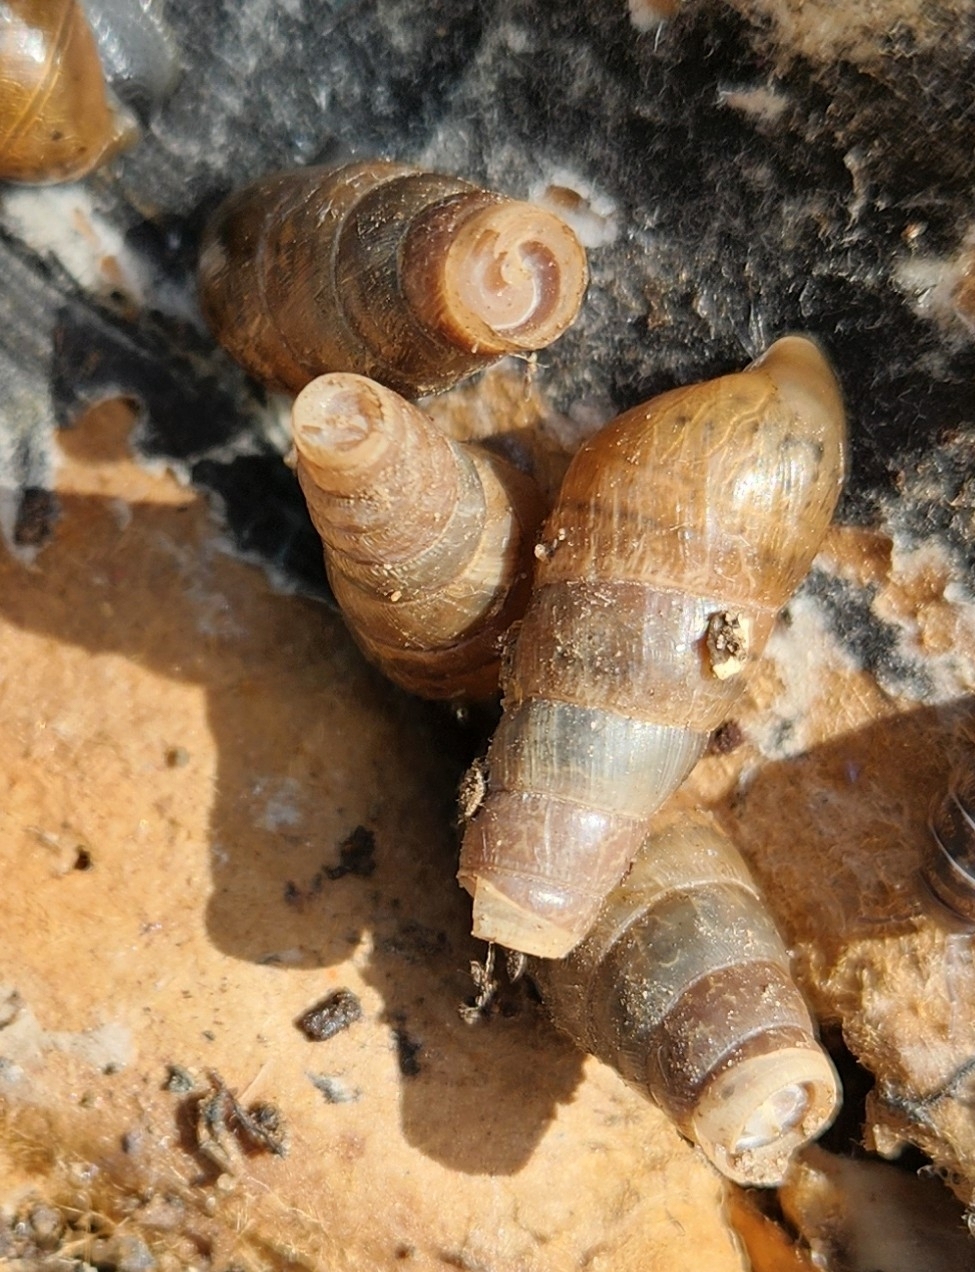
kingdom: Animalia
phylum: Mollusca
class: Gastropoda
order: Stylommatophora
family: Achatinidae
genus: Rumina
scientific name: Rumina decollata
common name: Decollate snail
